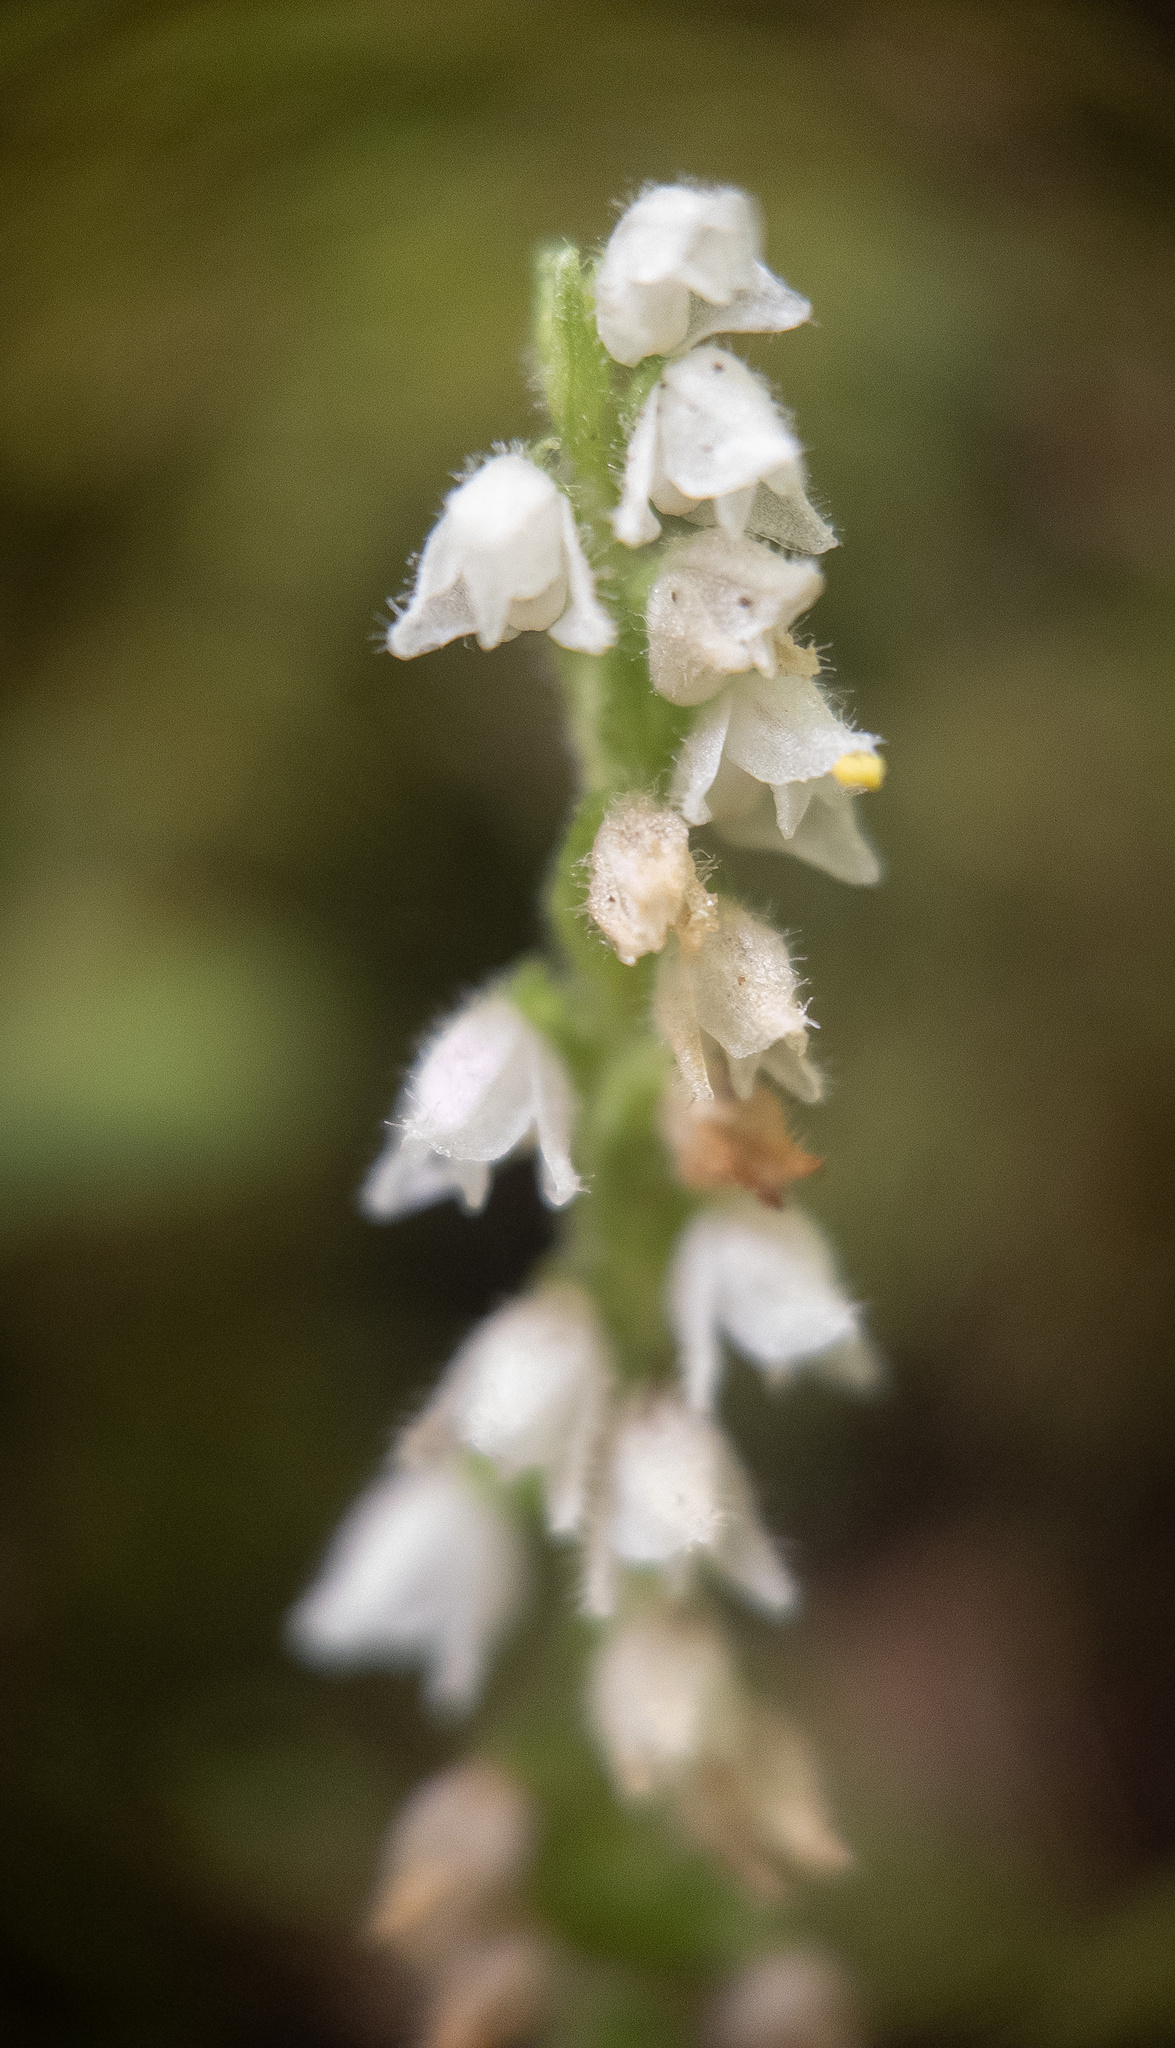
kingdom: Plantae
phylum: Tracheophyta
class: Liliopsida
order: Asparagales
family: Orchidaceae
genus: Goodyera
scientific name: Goodyera repens
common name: Creeping lady's-tresses
